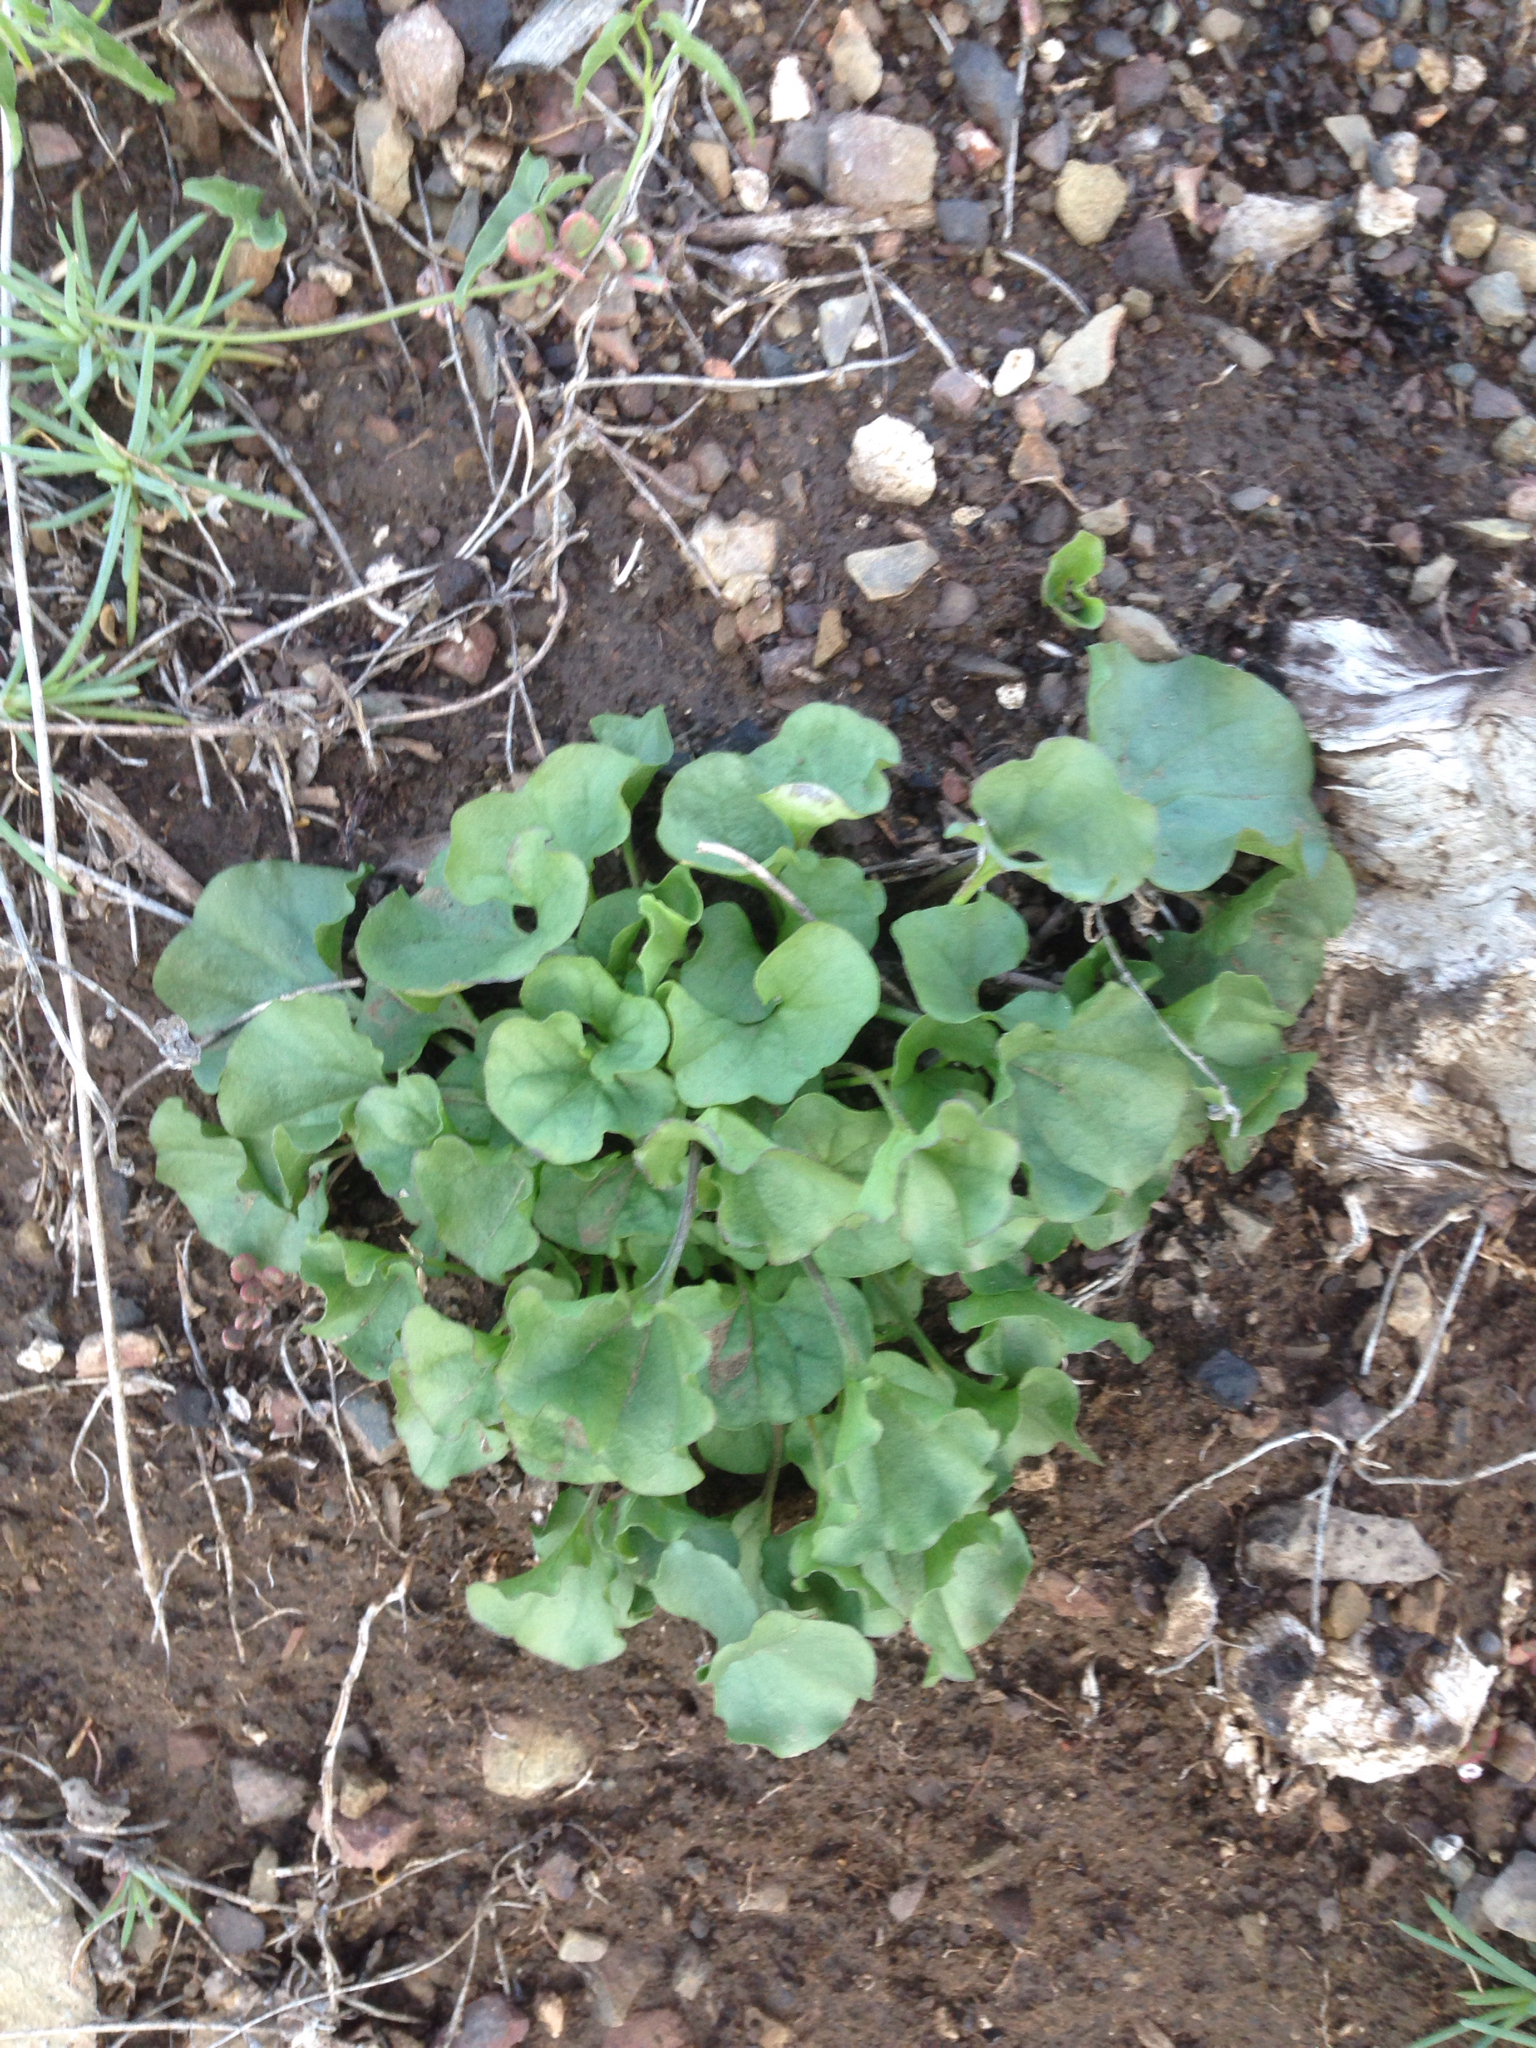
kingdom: Plantae
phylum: Tracheophyta
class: Magnoliopsida
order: Solanales
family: Convolvulaceae
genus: Dichondra
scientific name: Dichondra occidentalis
